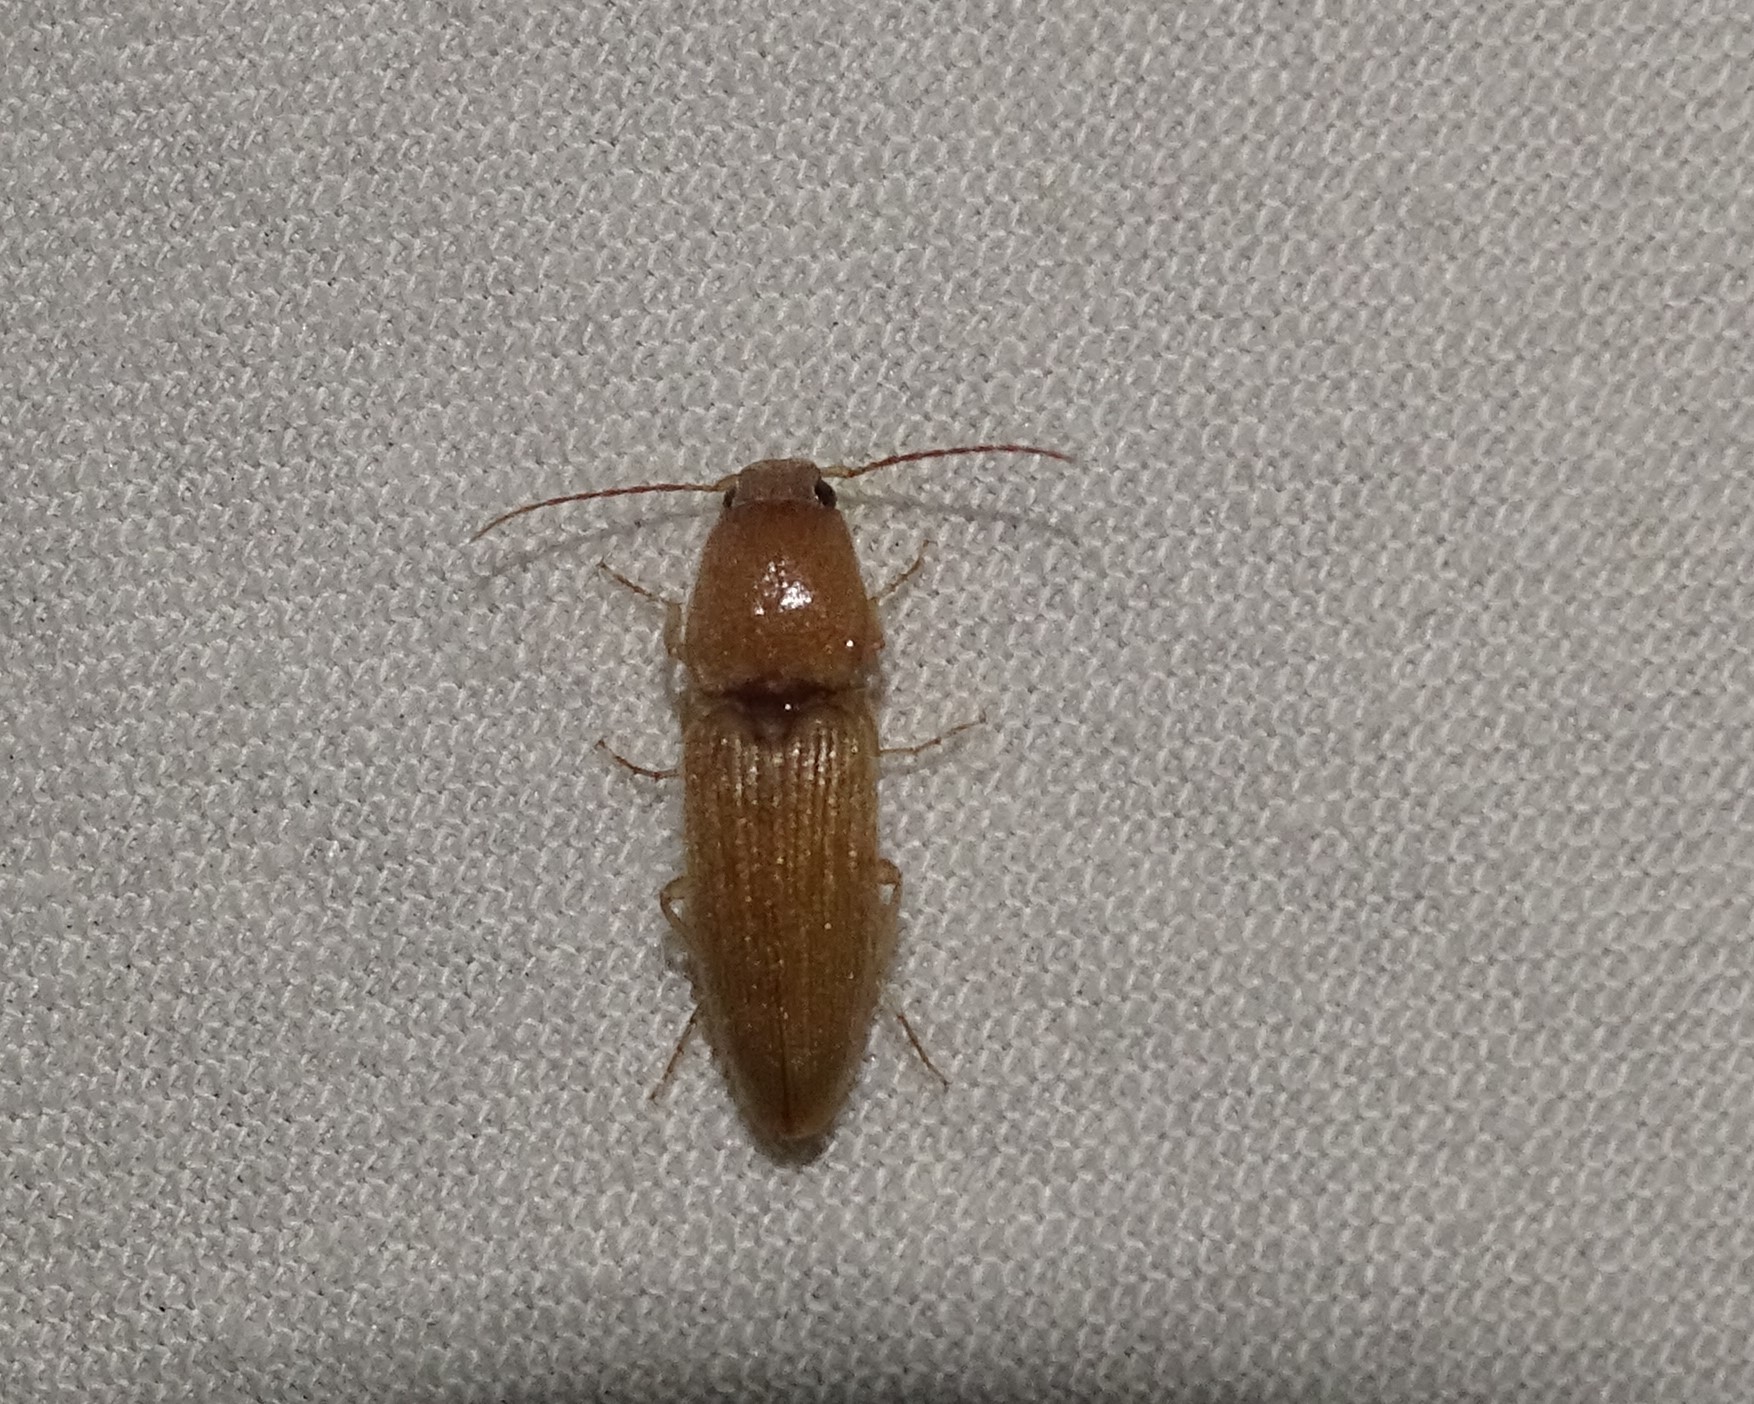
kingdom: Animalia
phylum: Arthropoda
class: Insecta
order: Coleoptera
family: Elateridae
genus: Monocrepidius
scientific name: Monocrepidius scissus
